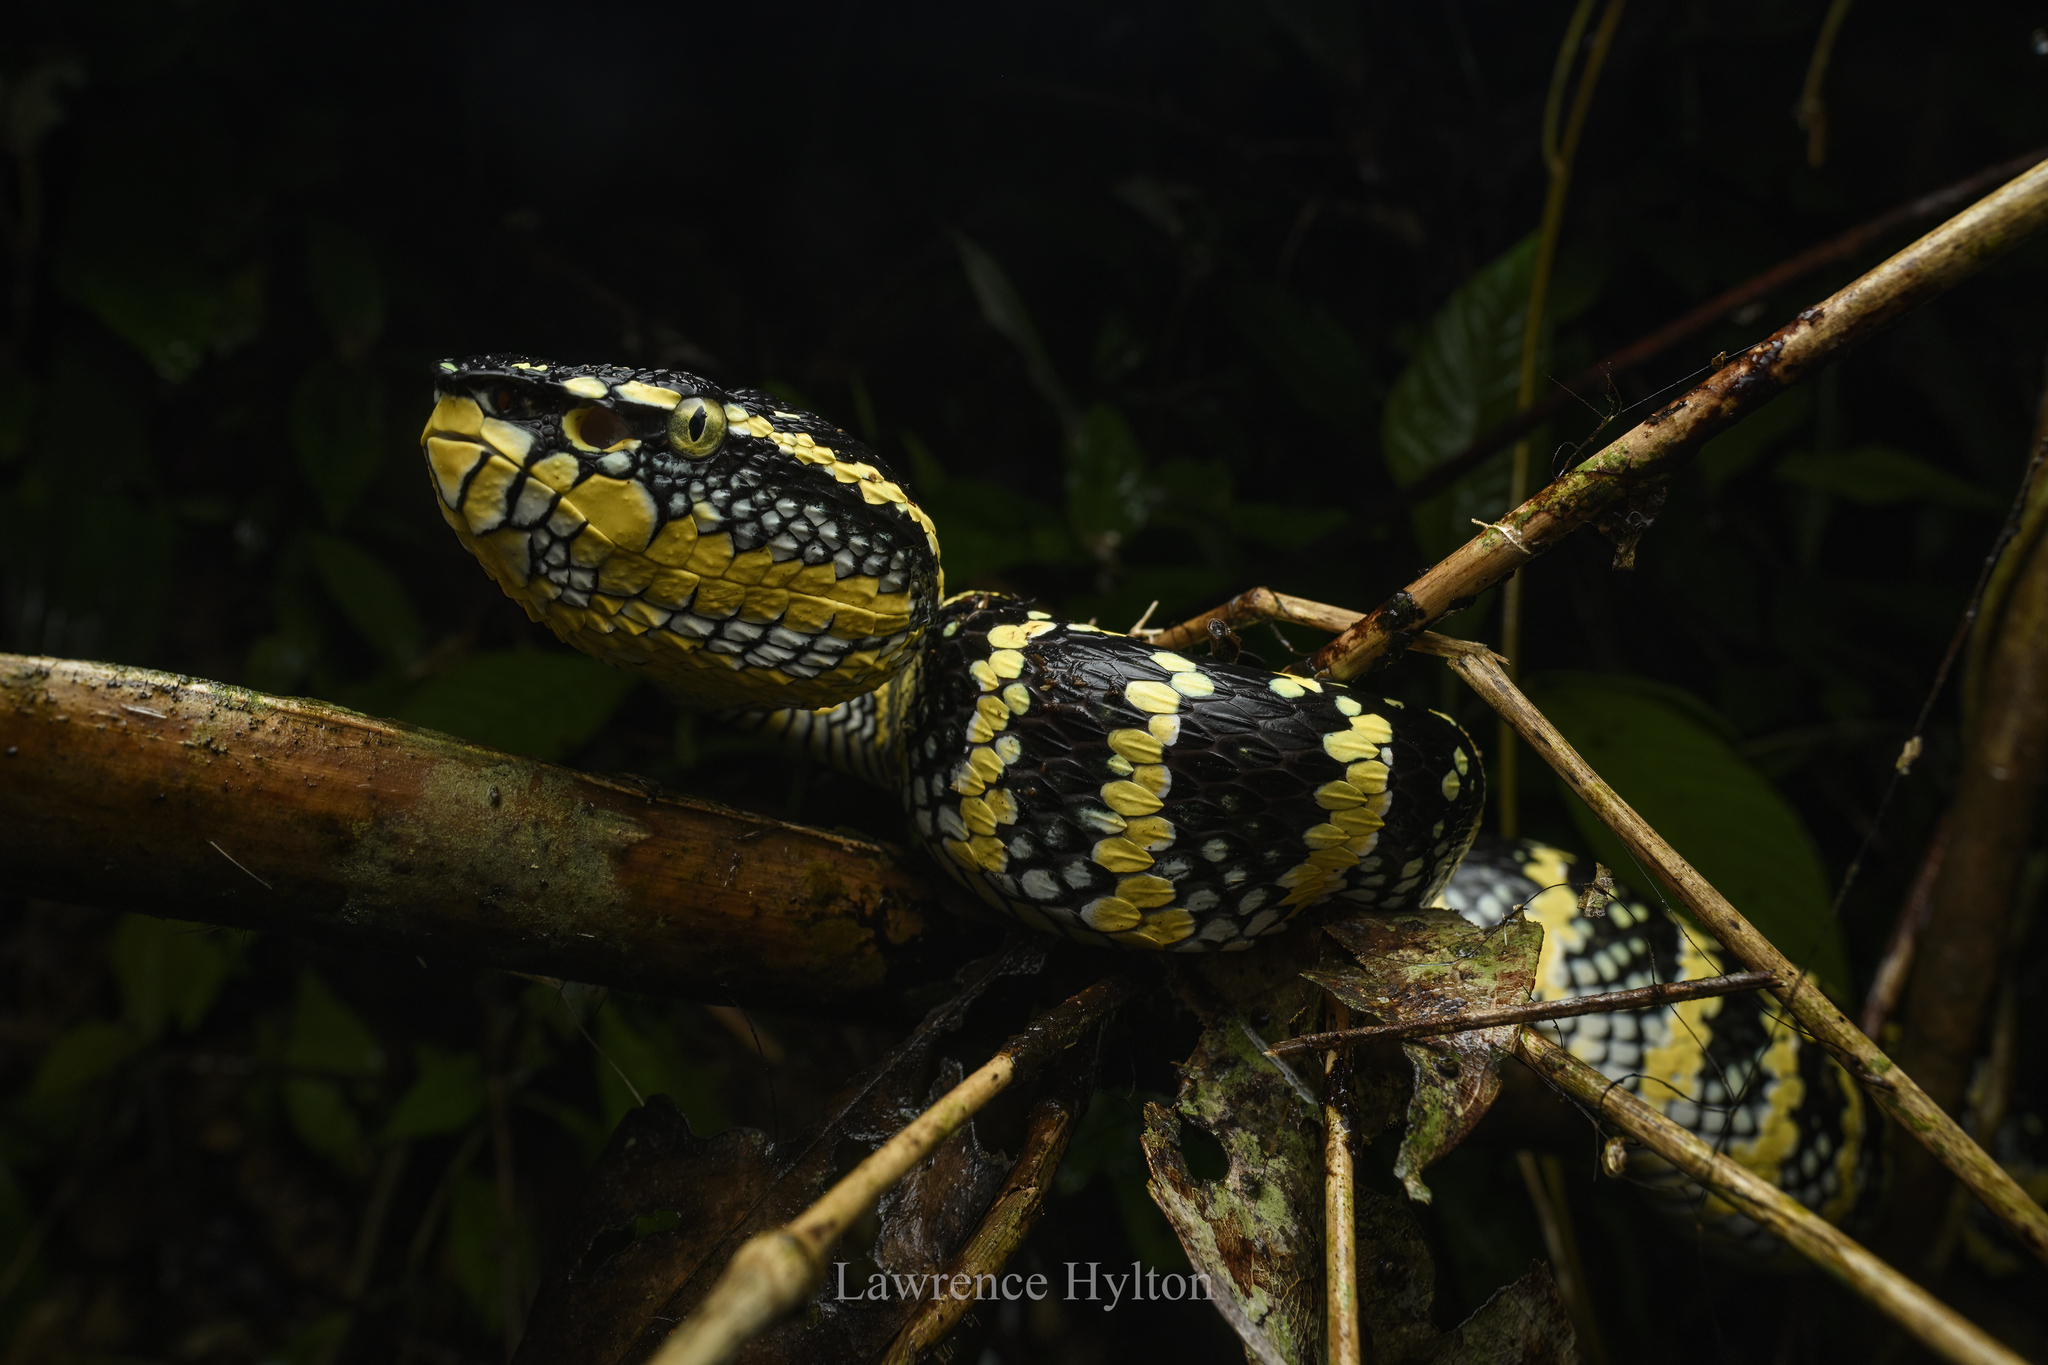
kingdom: Animalia
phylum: Chordata
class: Squamata
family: Viperidae
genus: Tropidolaemus
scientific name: Tropidolaemus wagleri
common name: Wagler's palm viper
